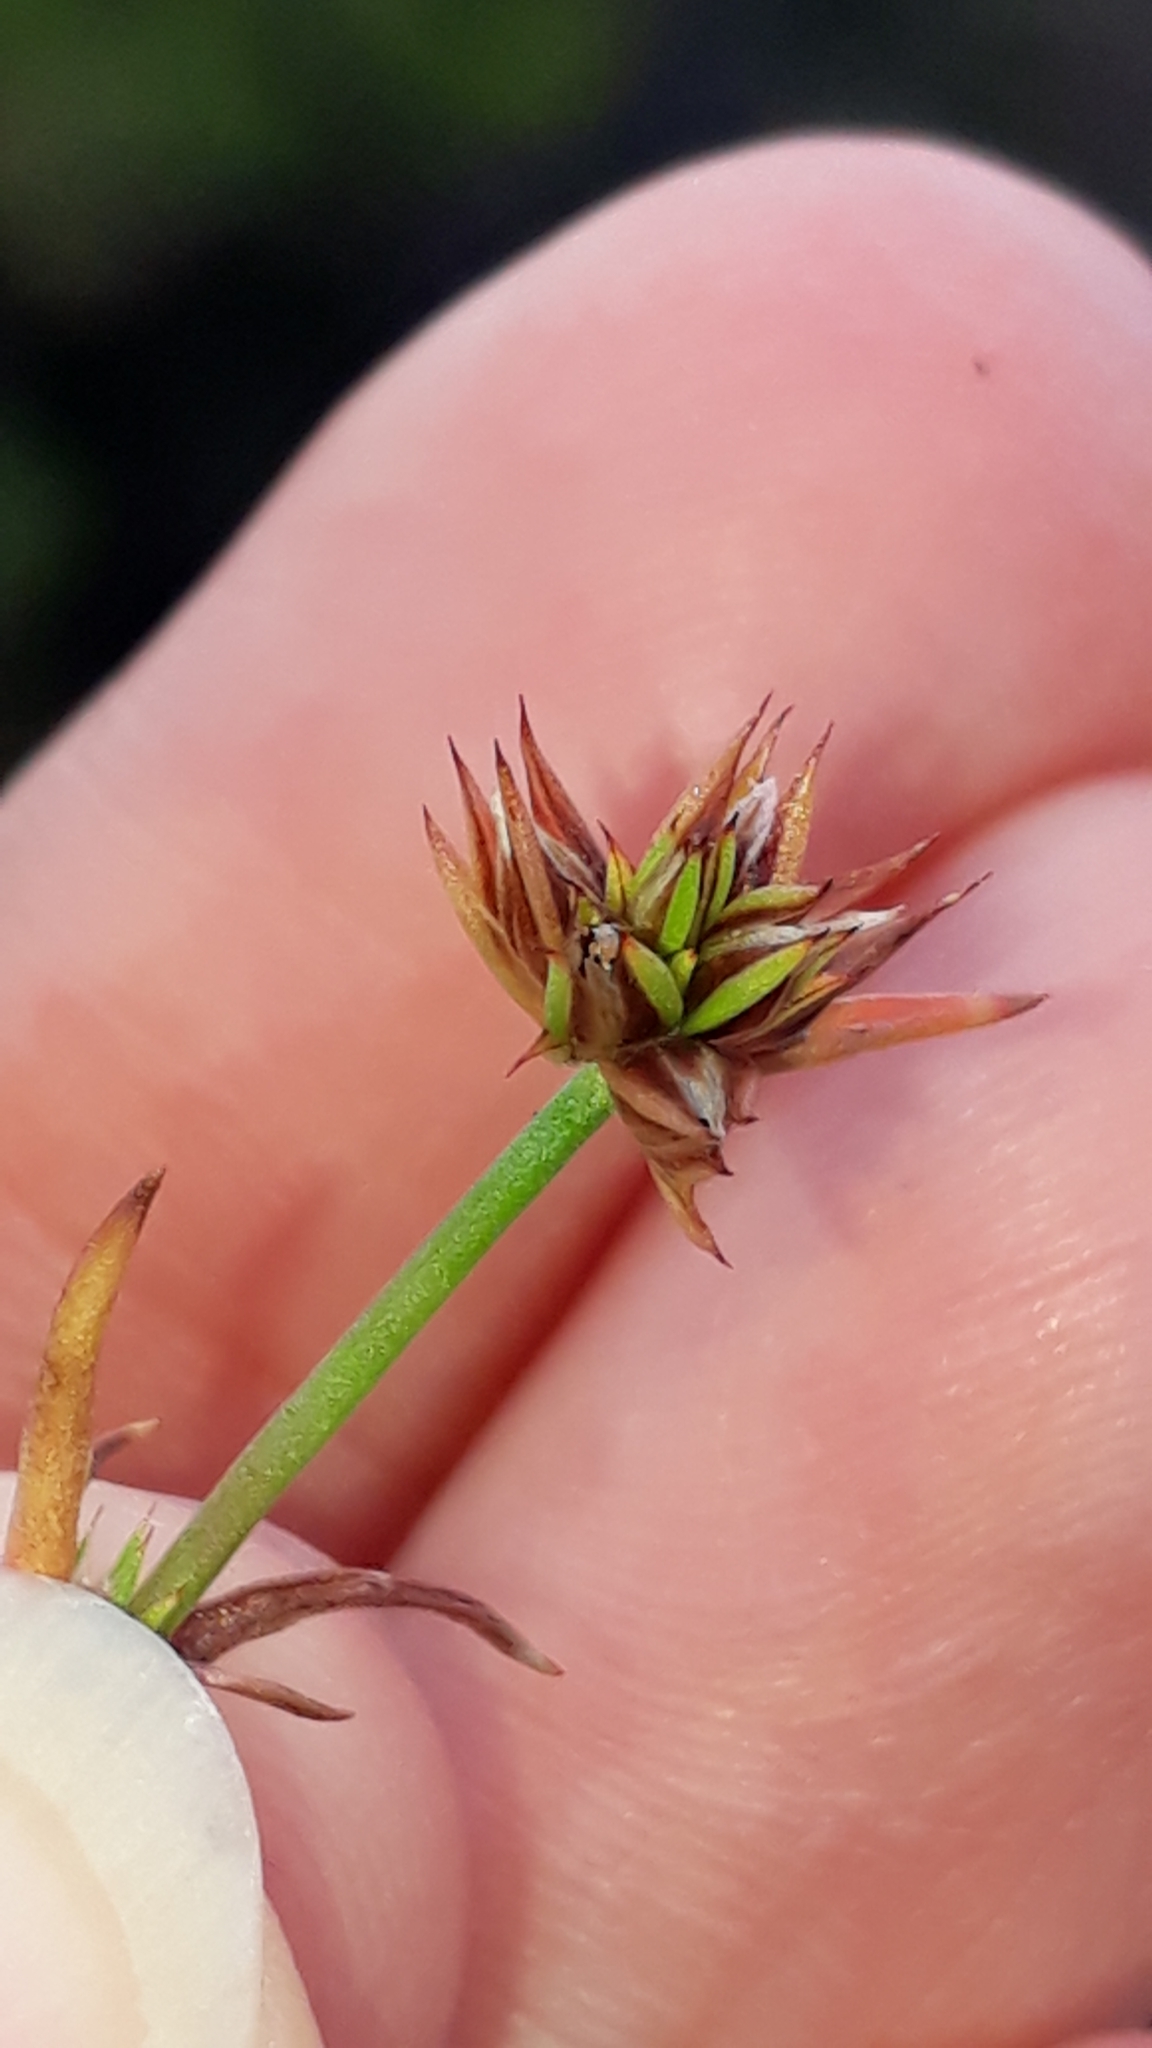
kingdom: Plantae
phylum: Tracheophyta
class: Liliopsida
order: Poales
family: Juncaceae
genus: Juncus
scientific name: Juncus capitatus
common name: Dwarf rush
